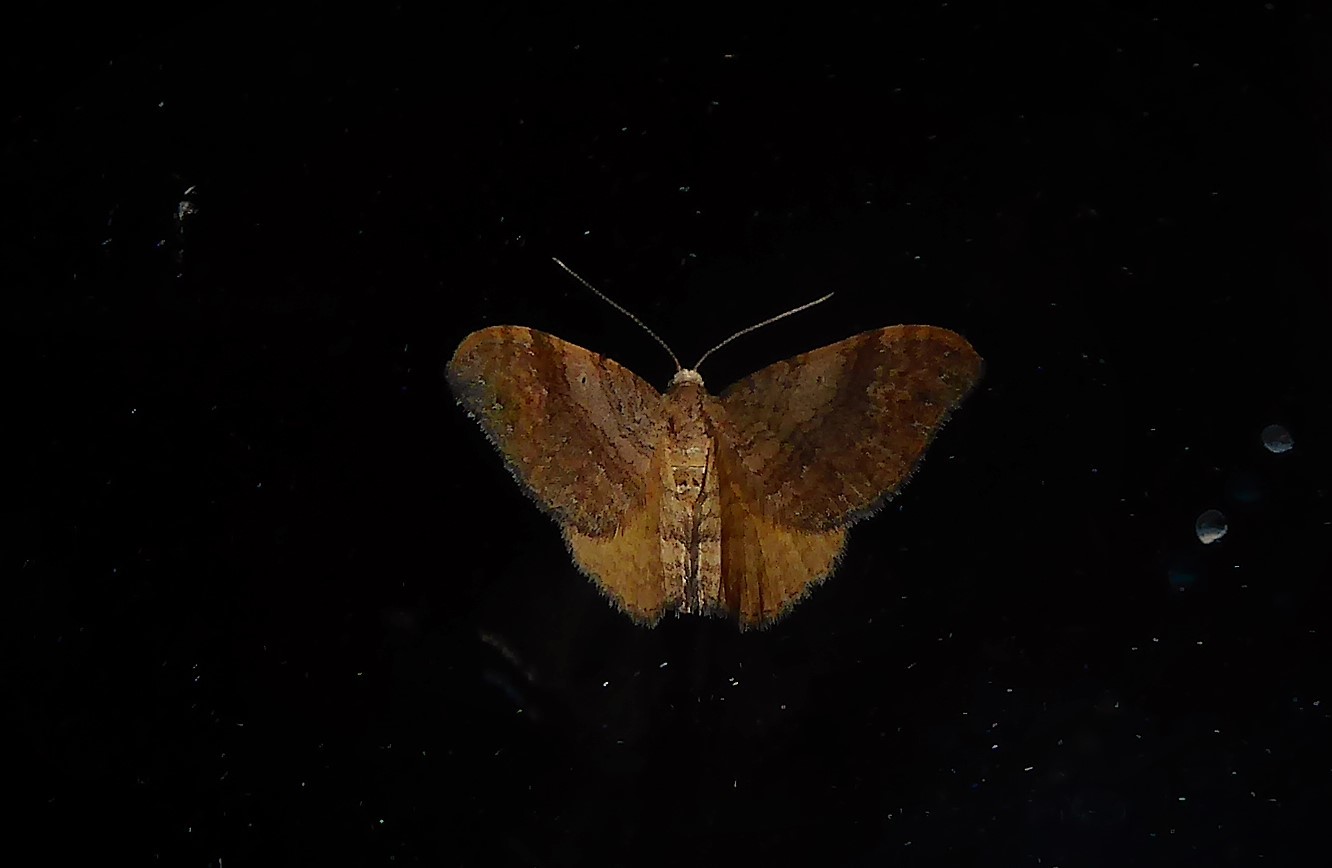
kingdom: Animalia
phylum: Arthropoda
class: Insecta
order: Lepidoptera
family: Geometridae
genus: Homodotis
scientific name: Homodotis megaspilata
